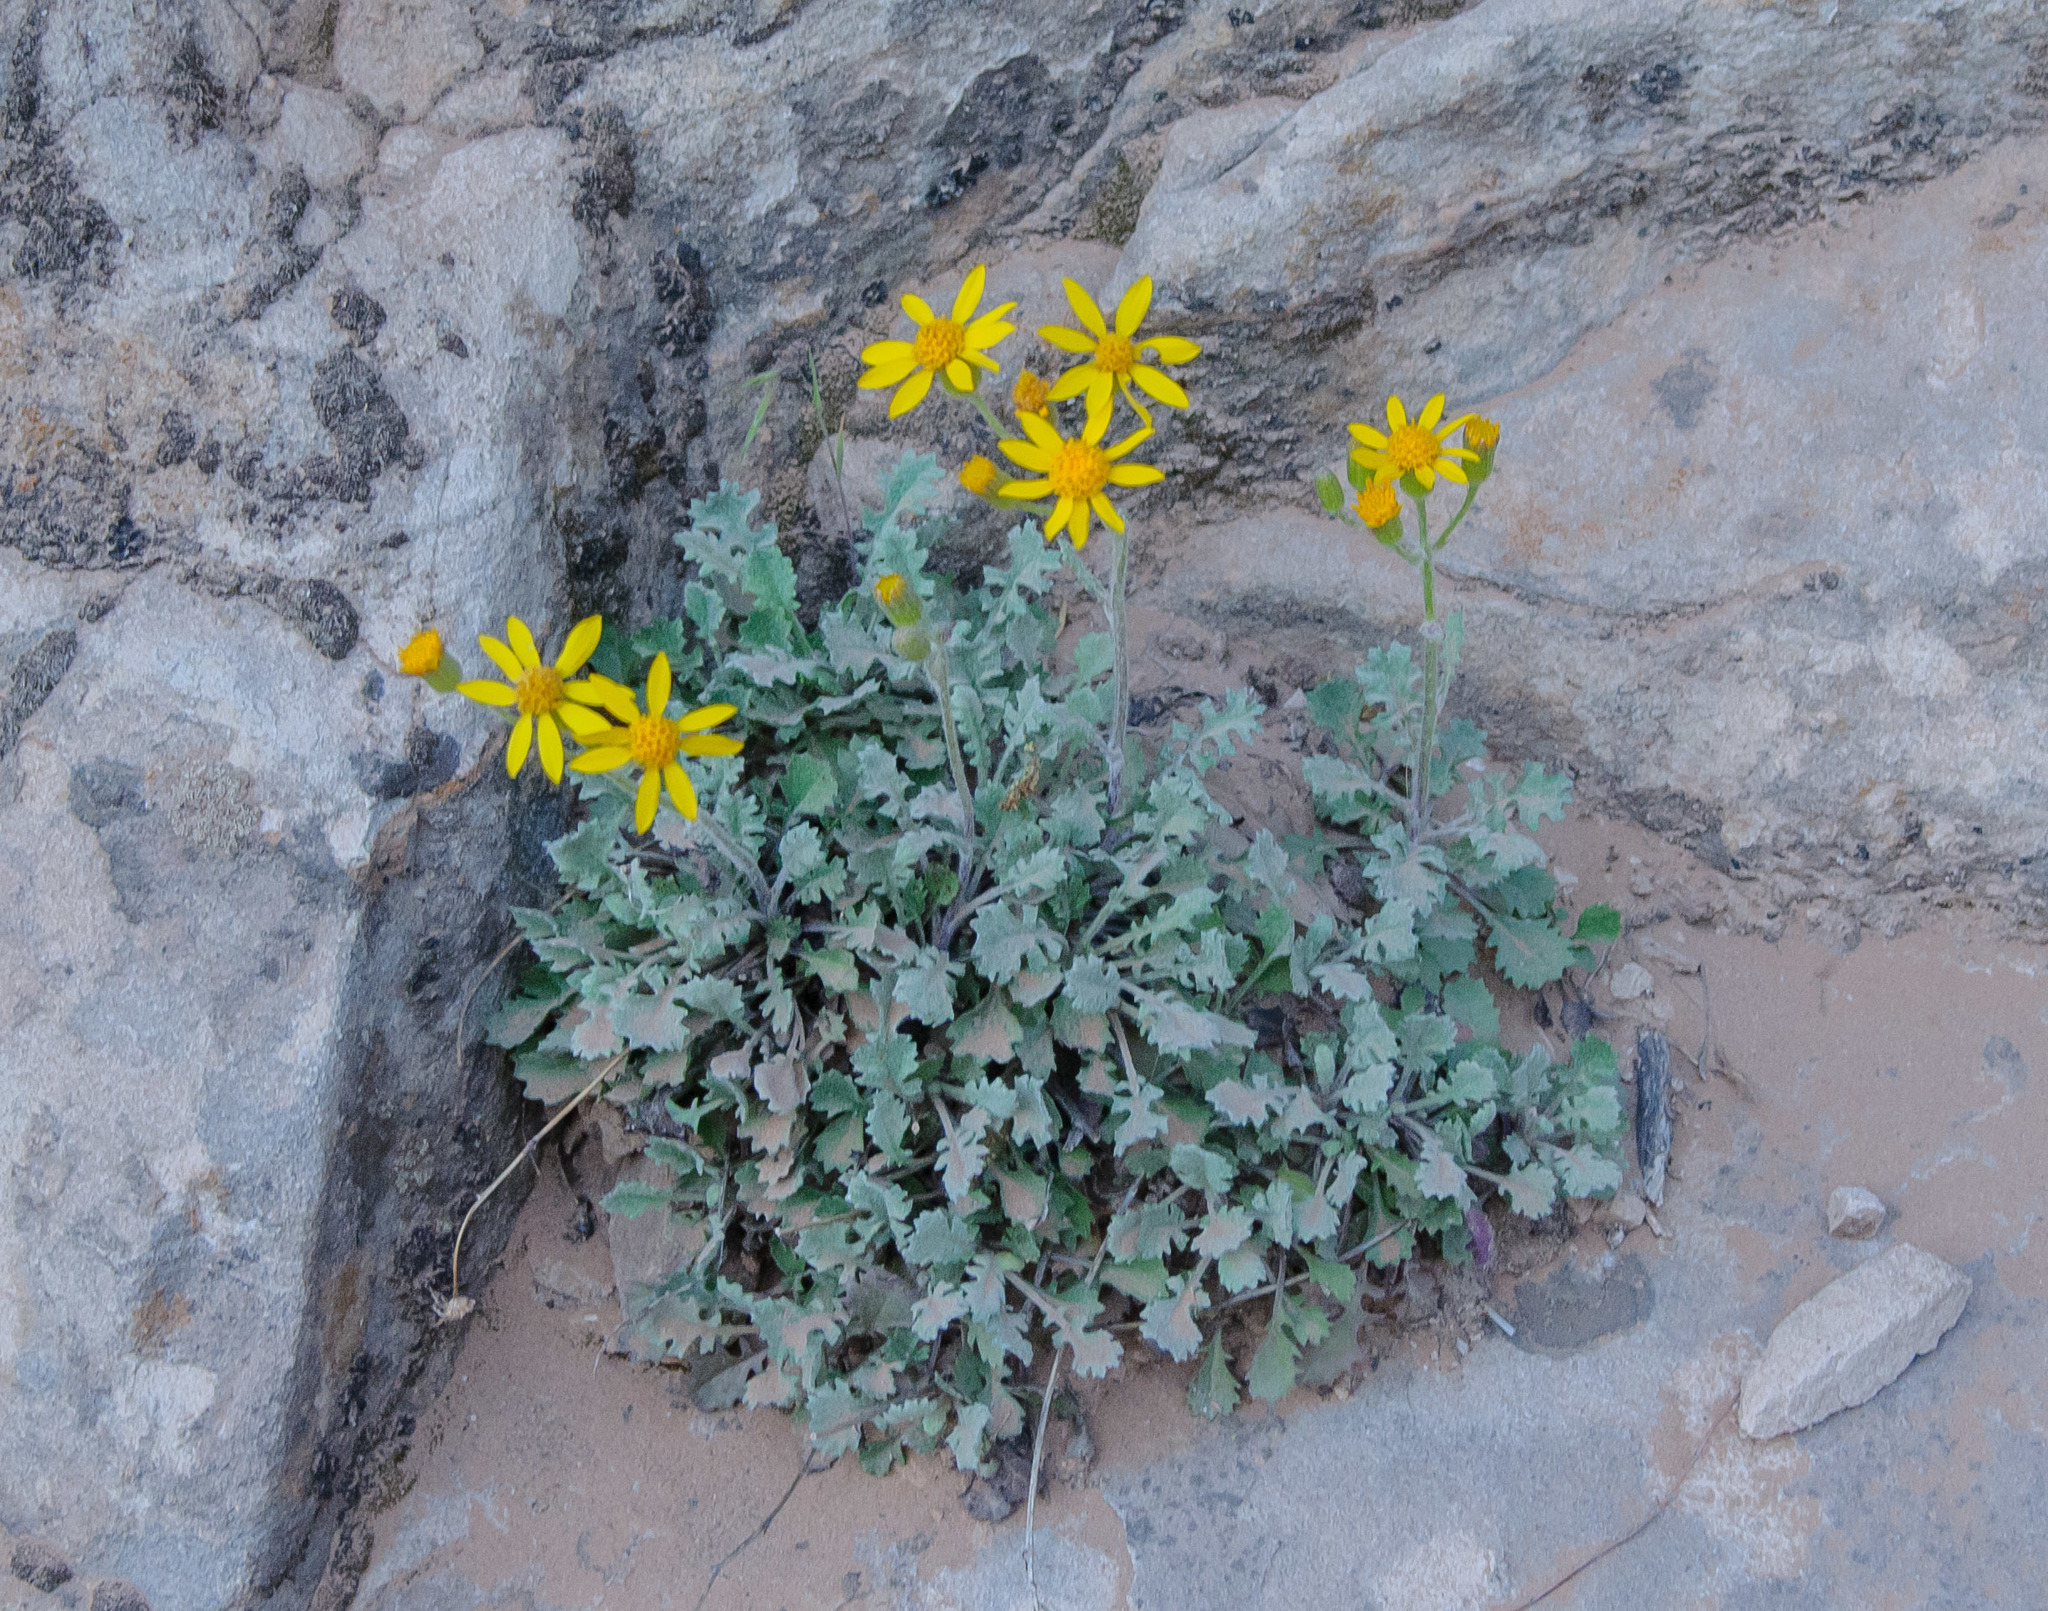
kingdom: Plantae
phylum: Tracheophyta
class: Magnoliopsida
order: Asterales
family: Asteraceae
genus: Packera
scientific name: Packera quercetorum
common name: Oak creek ragwort
